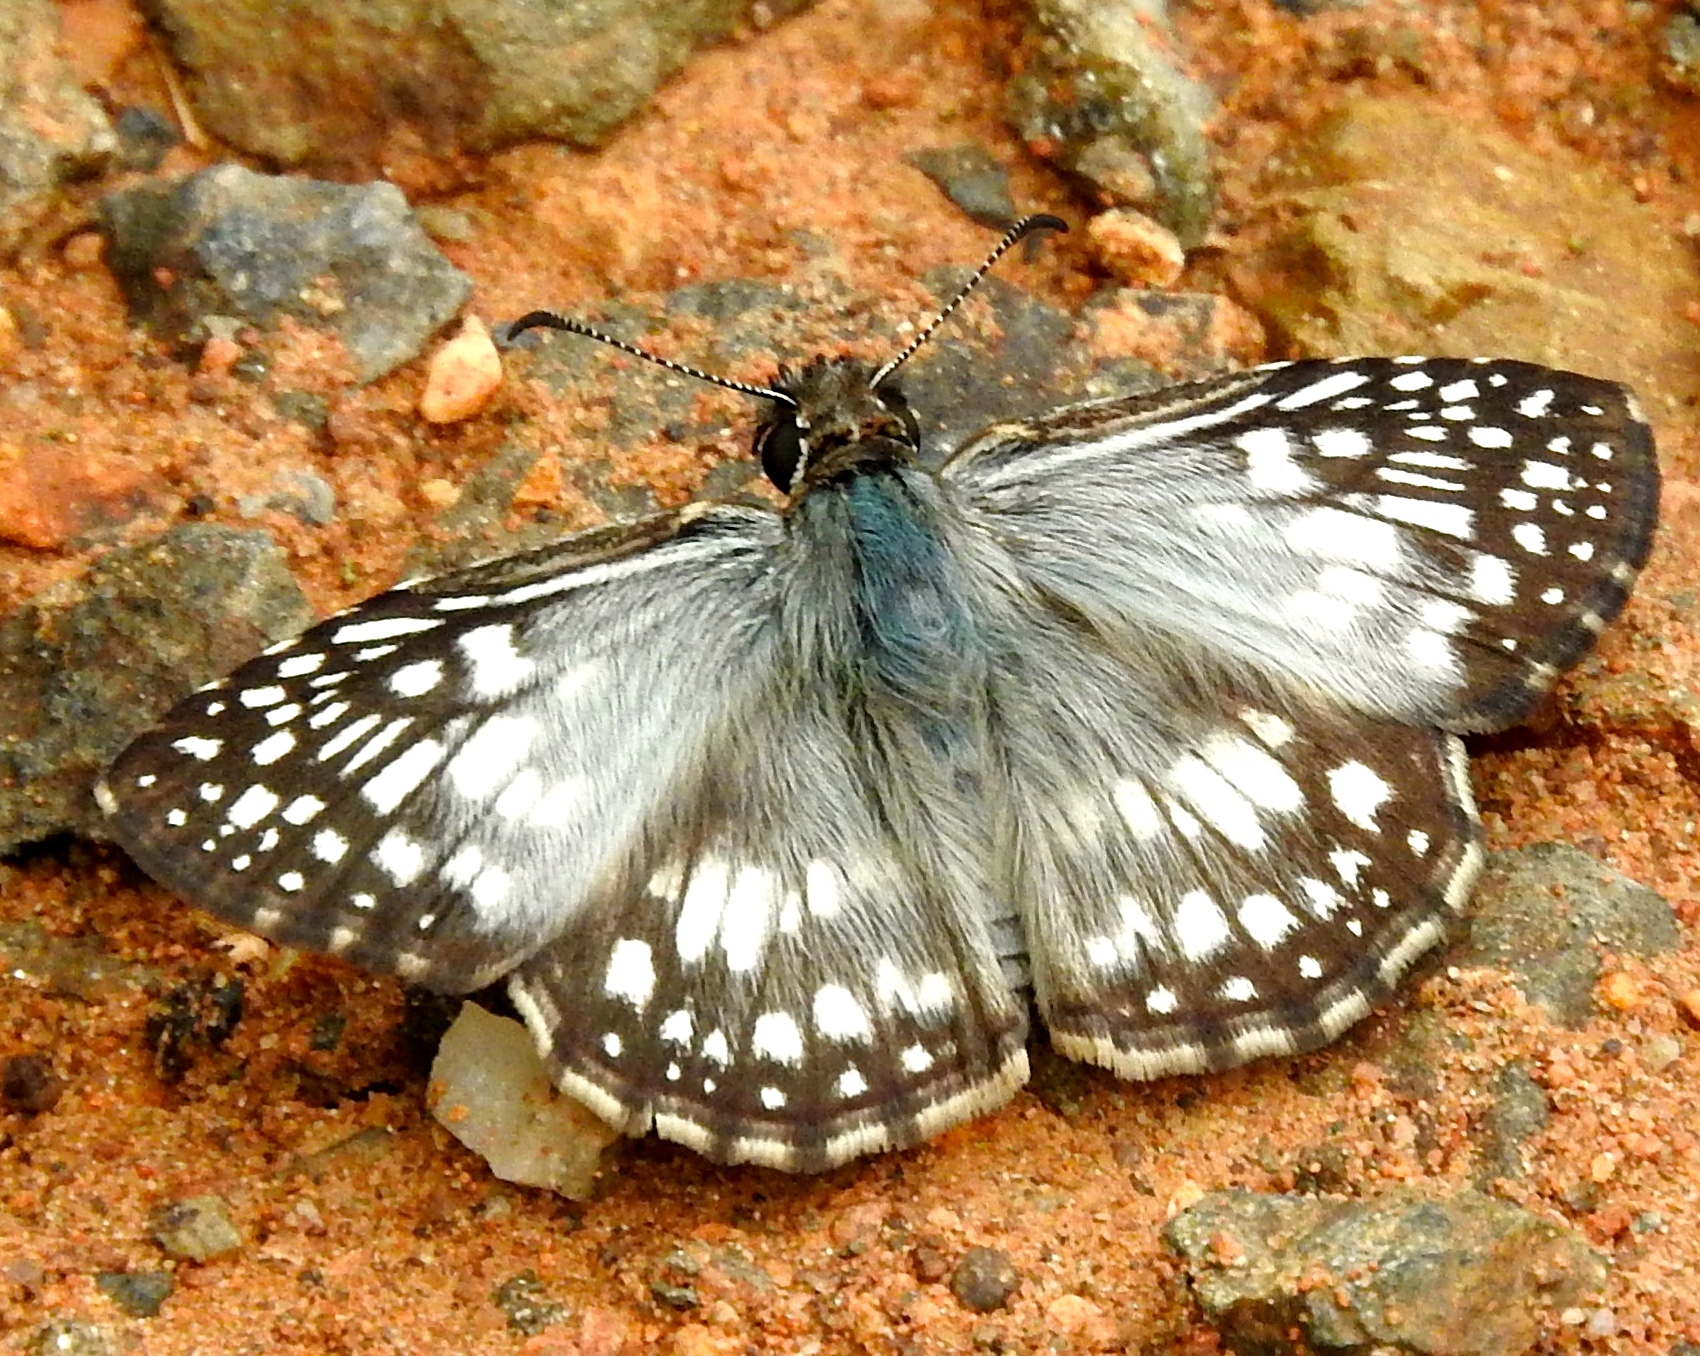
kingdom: Animalia
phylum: Arthropoda
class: Insecta
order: Lepidoptera
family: Hesperiidae
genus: Pyrgus
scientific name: Pyrgus oileus
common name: Tropical checkered-skipper
